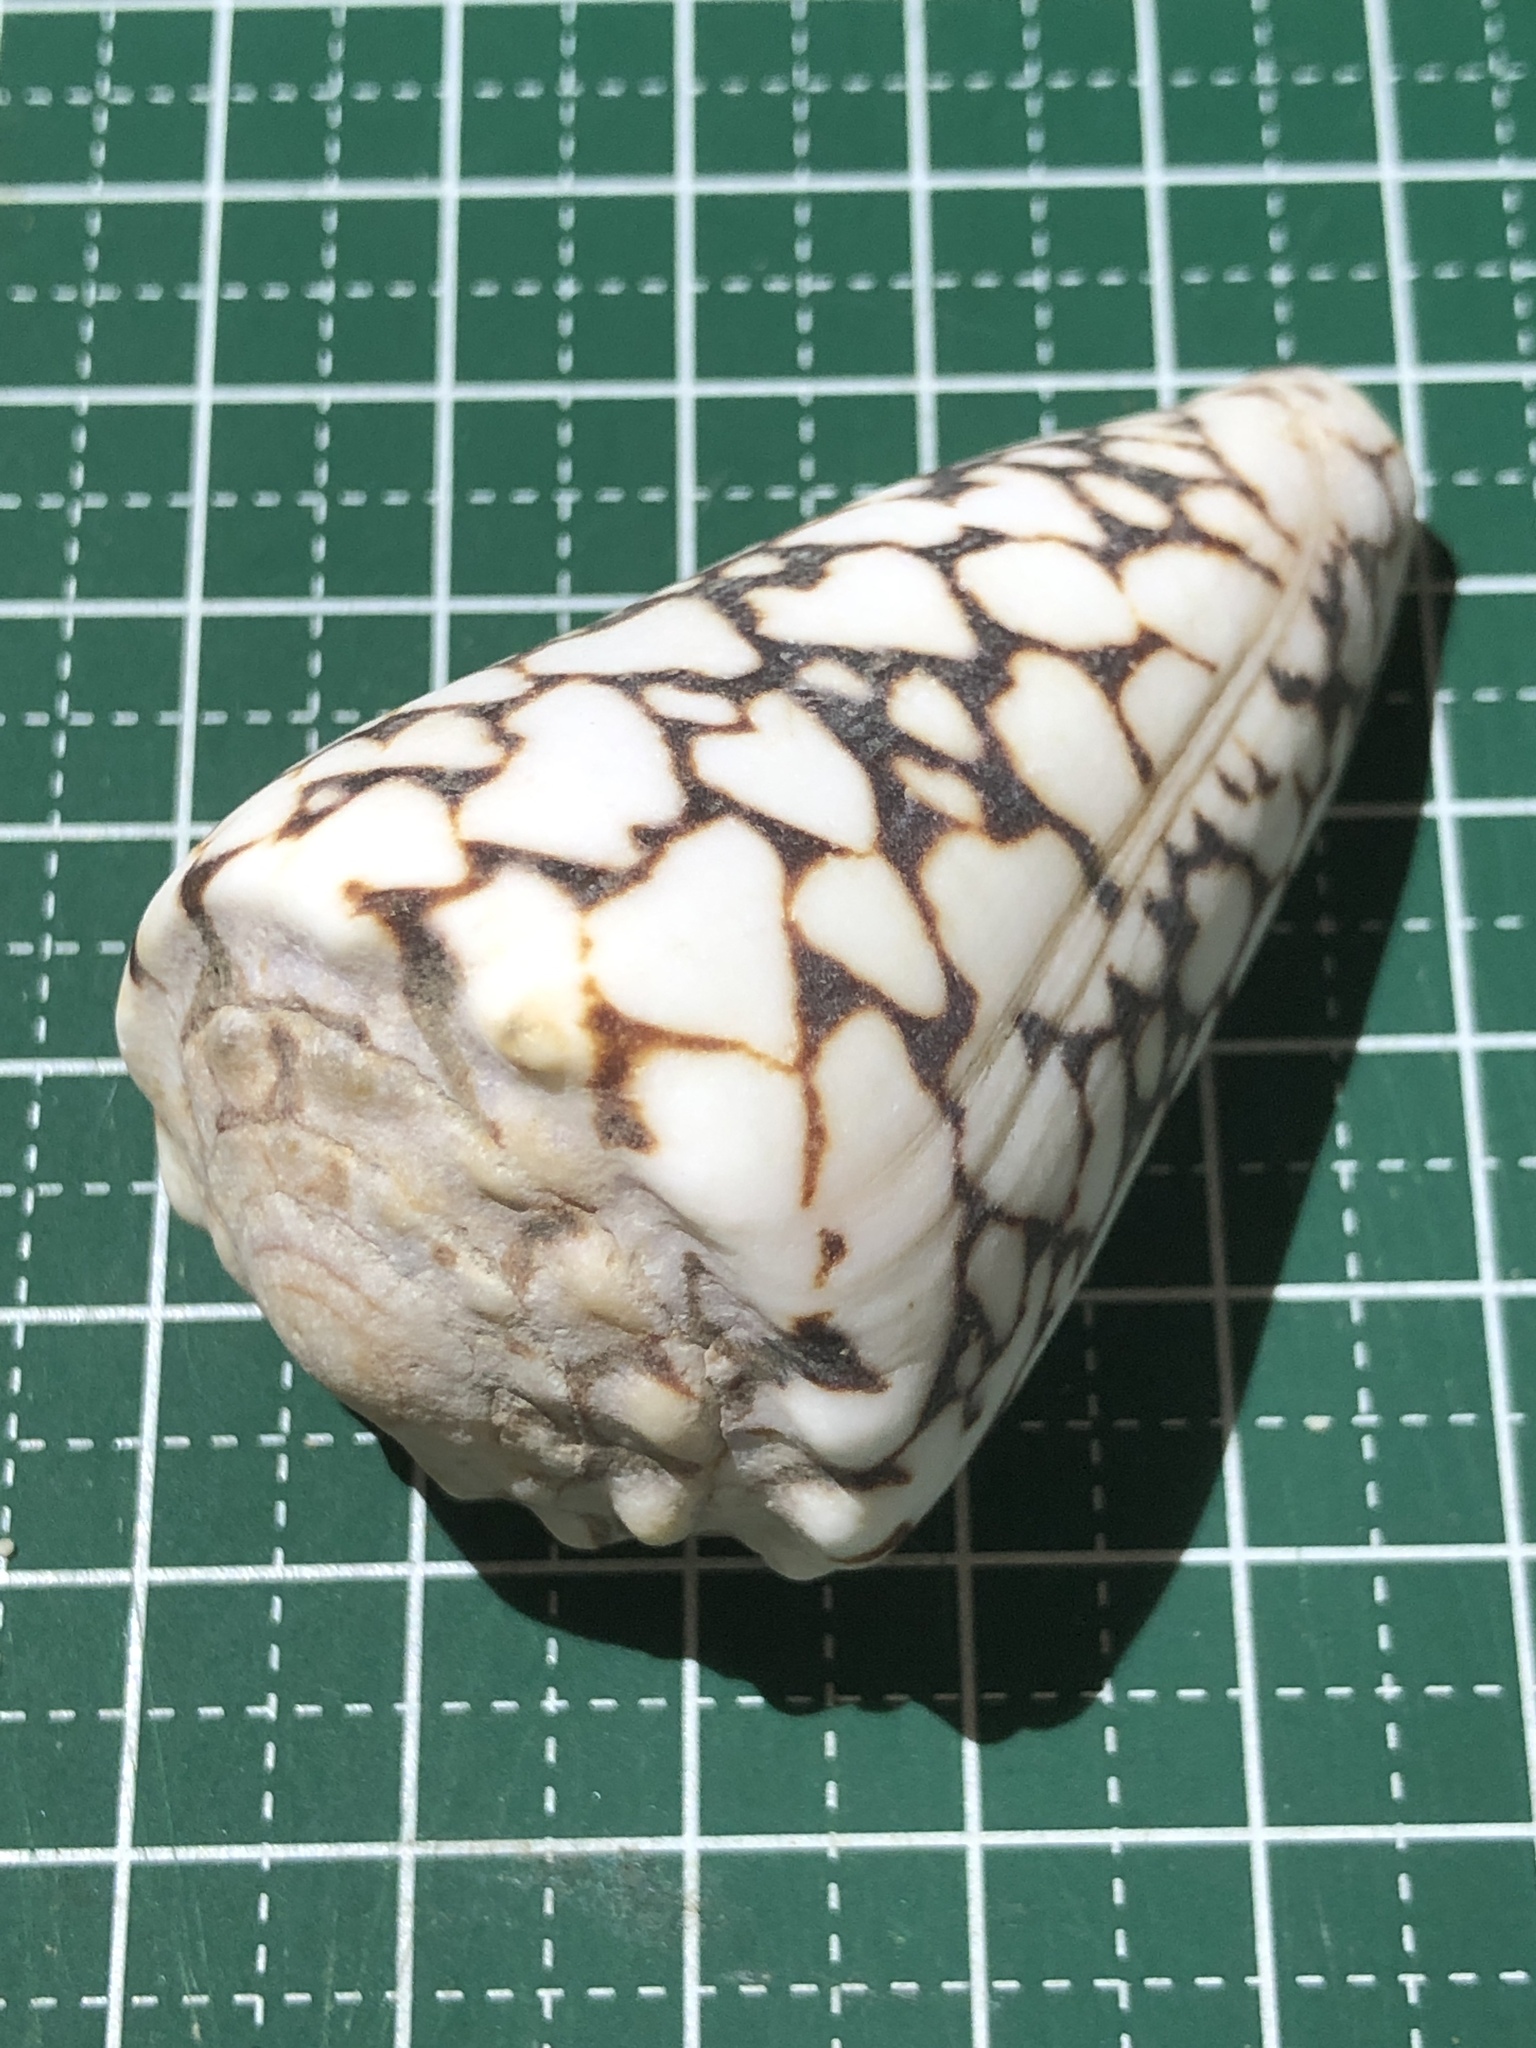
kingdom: Animalia
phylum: Mollusca
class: Gastropoda
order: Neogastropoda
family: Conidae
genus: Conus
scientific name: Conus bandanus
